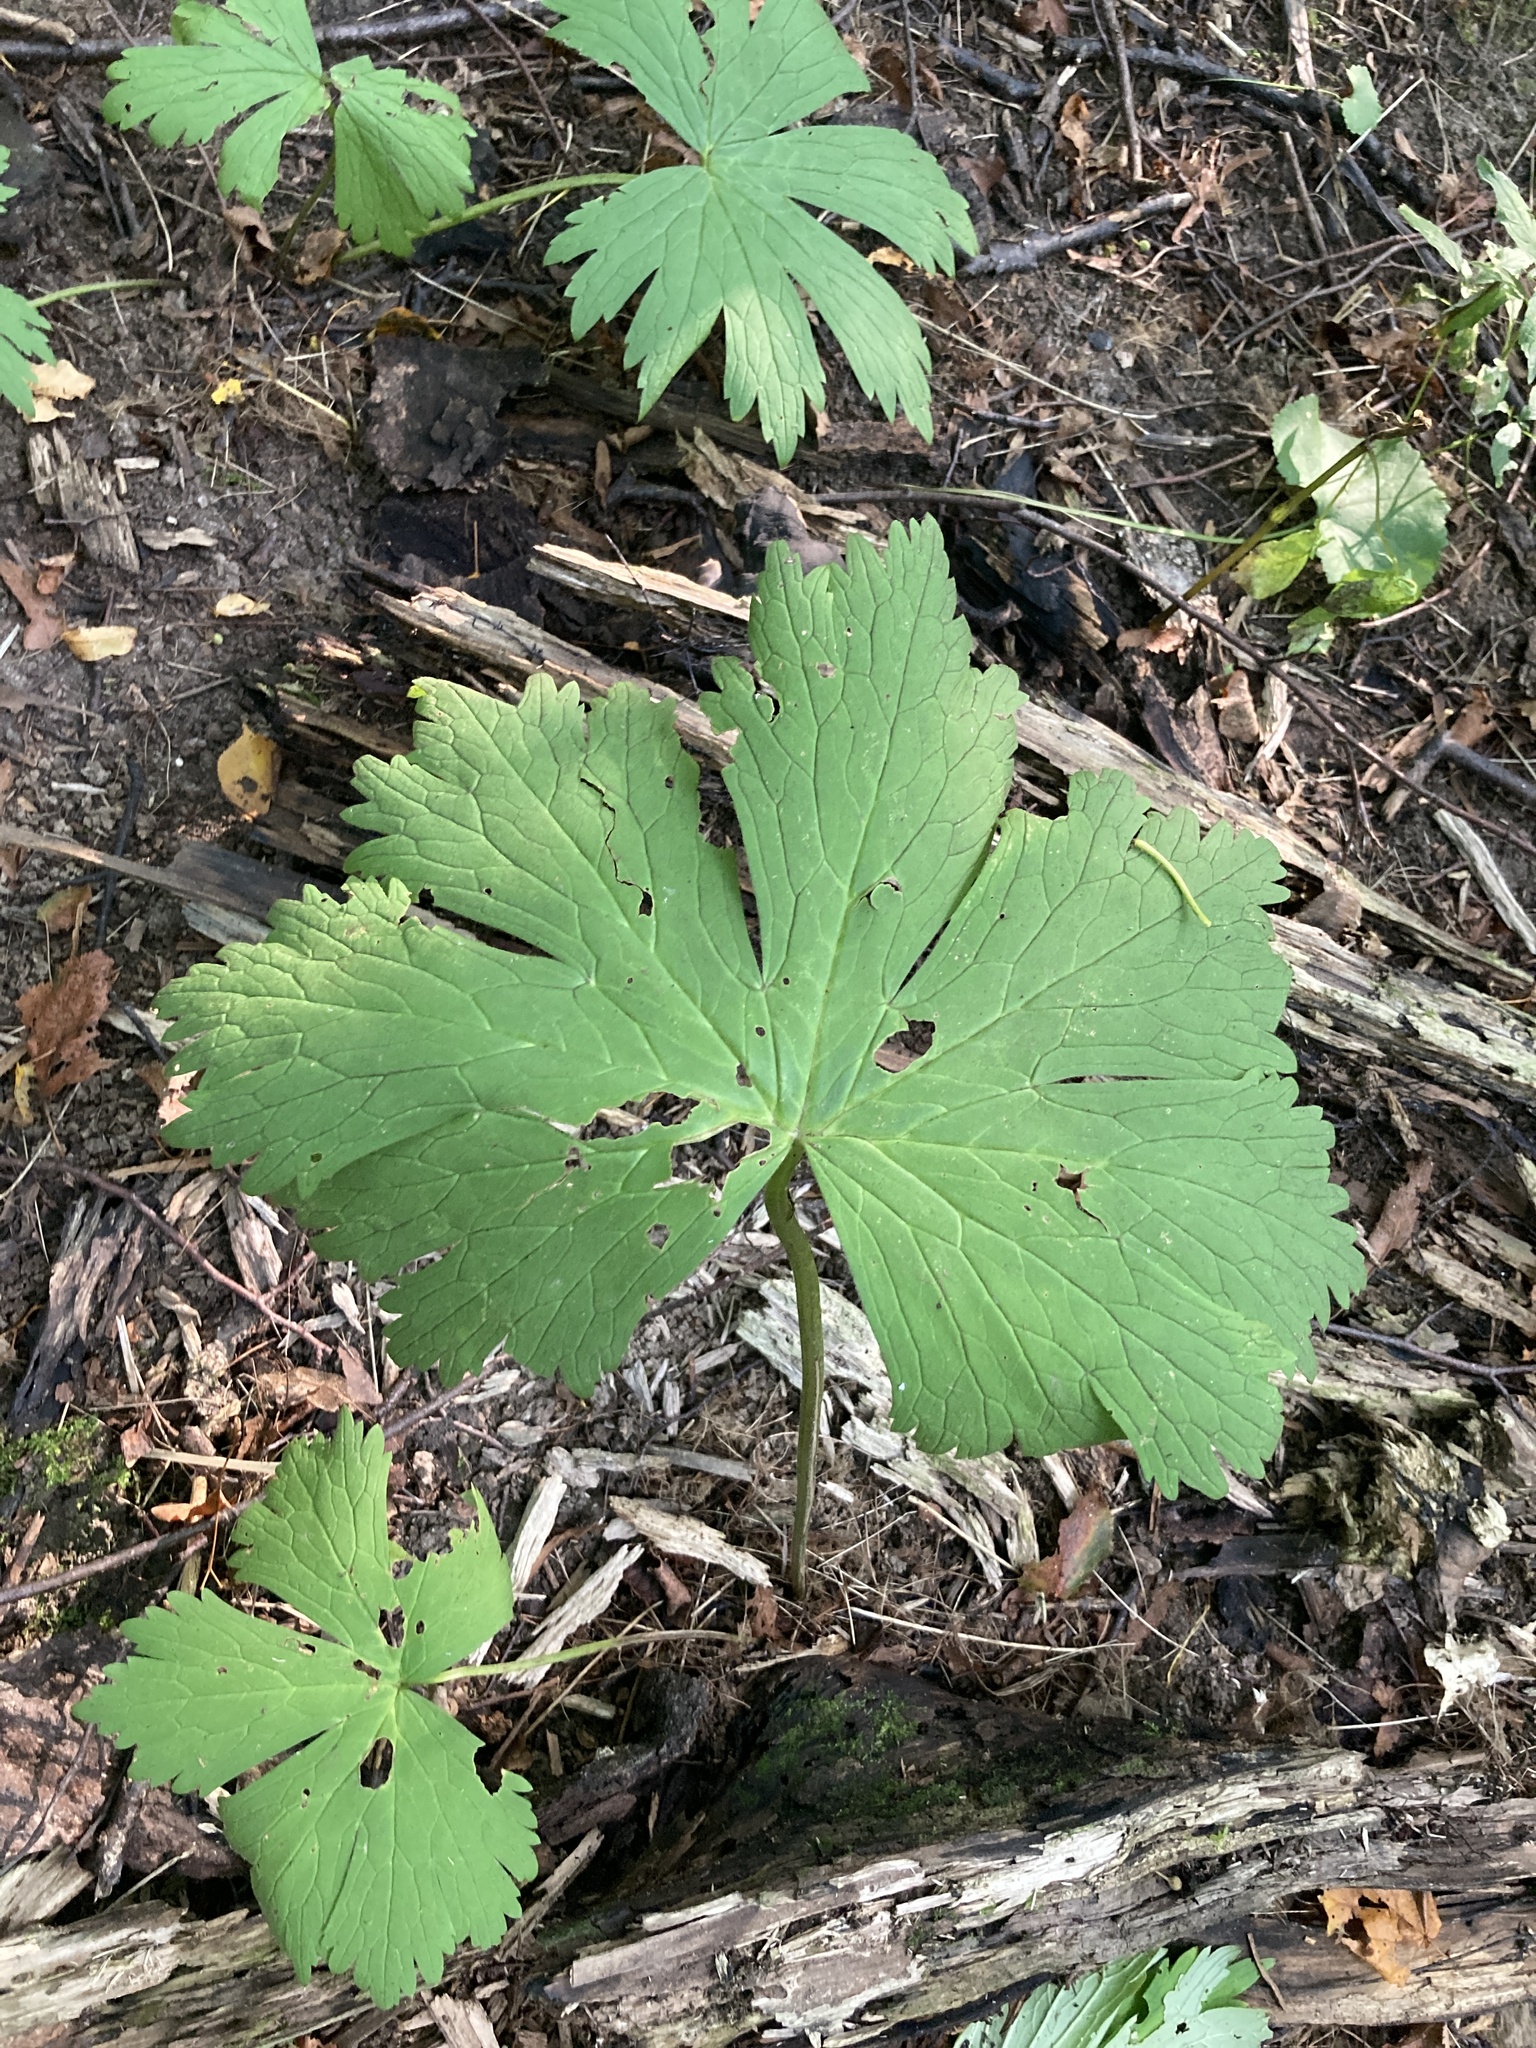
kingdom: Plantae
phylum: Tracheophyta
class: Magnoliopsida
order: Ranunculales
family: Ranunculaceae
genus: Aconitum
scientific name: Aconitum septentrionale
